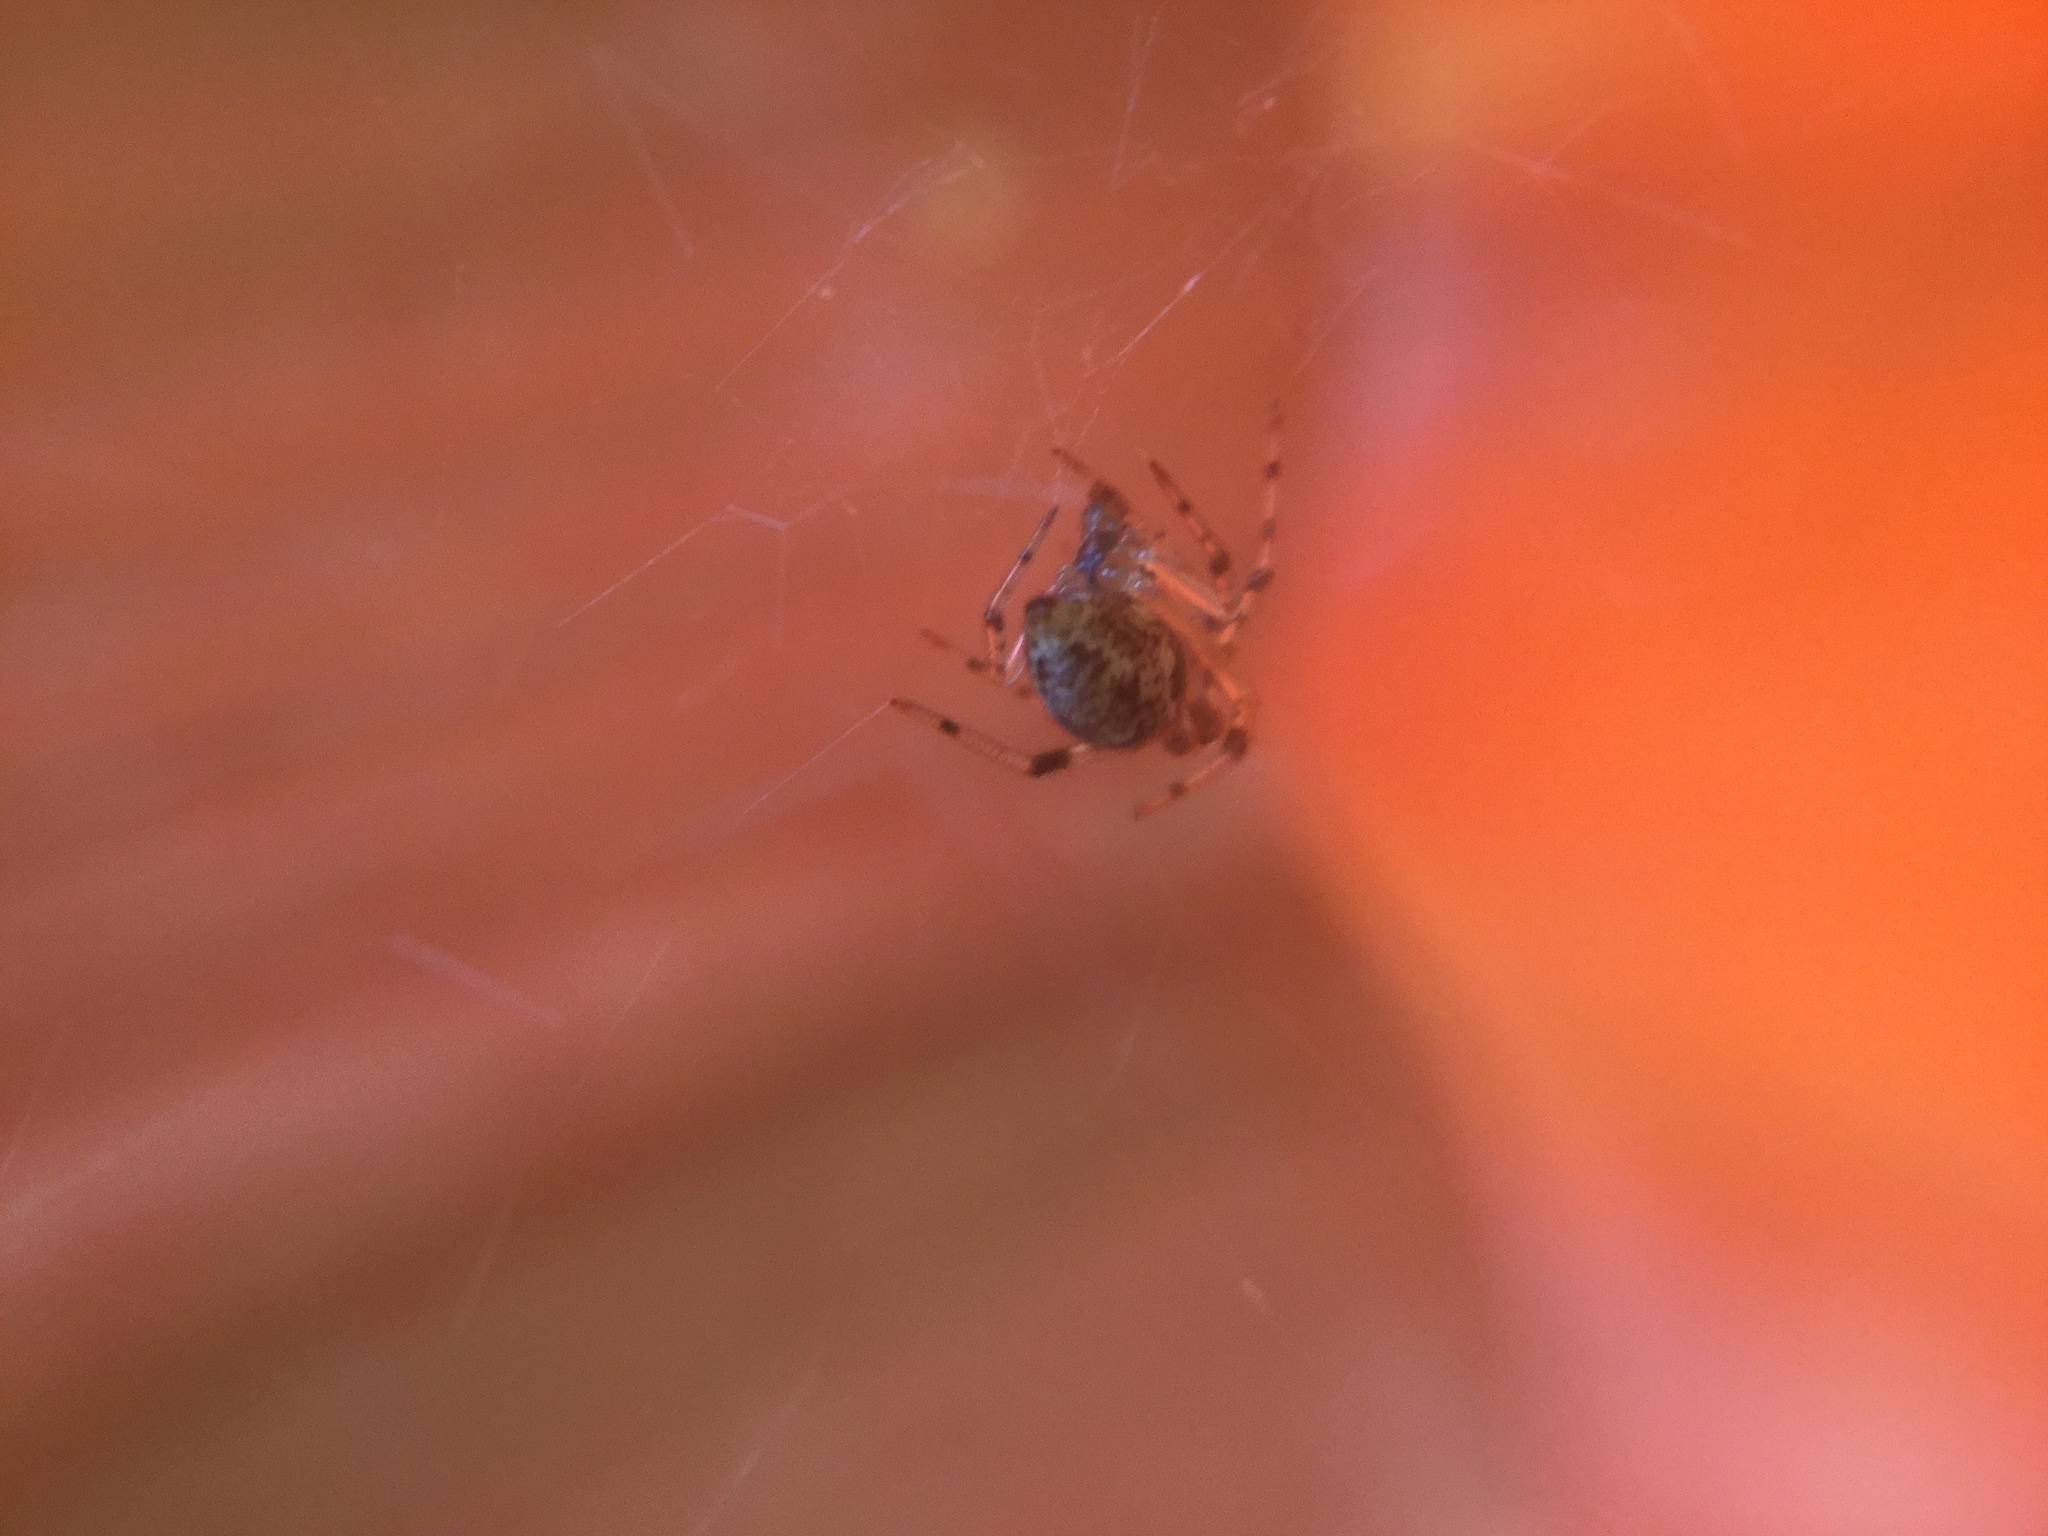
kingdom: Animalia
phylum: Arthropoda
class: Arachnida
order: Araneae
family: Theridiidae
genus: Parasteatoda
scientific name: Parasteatoda tepidariorum
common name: Common house spider
